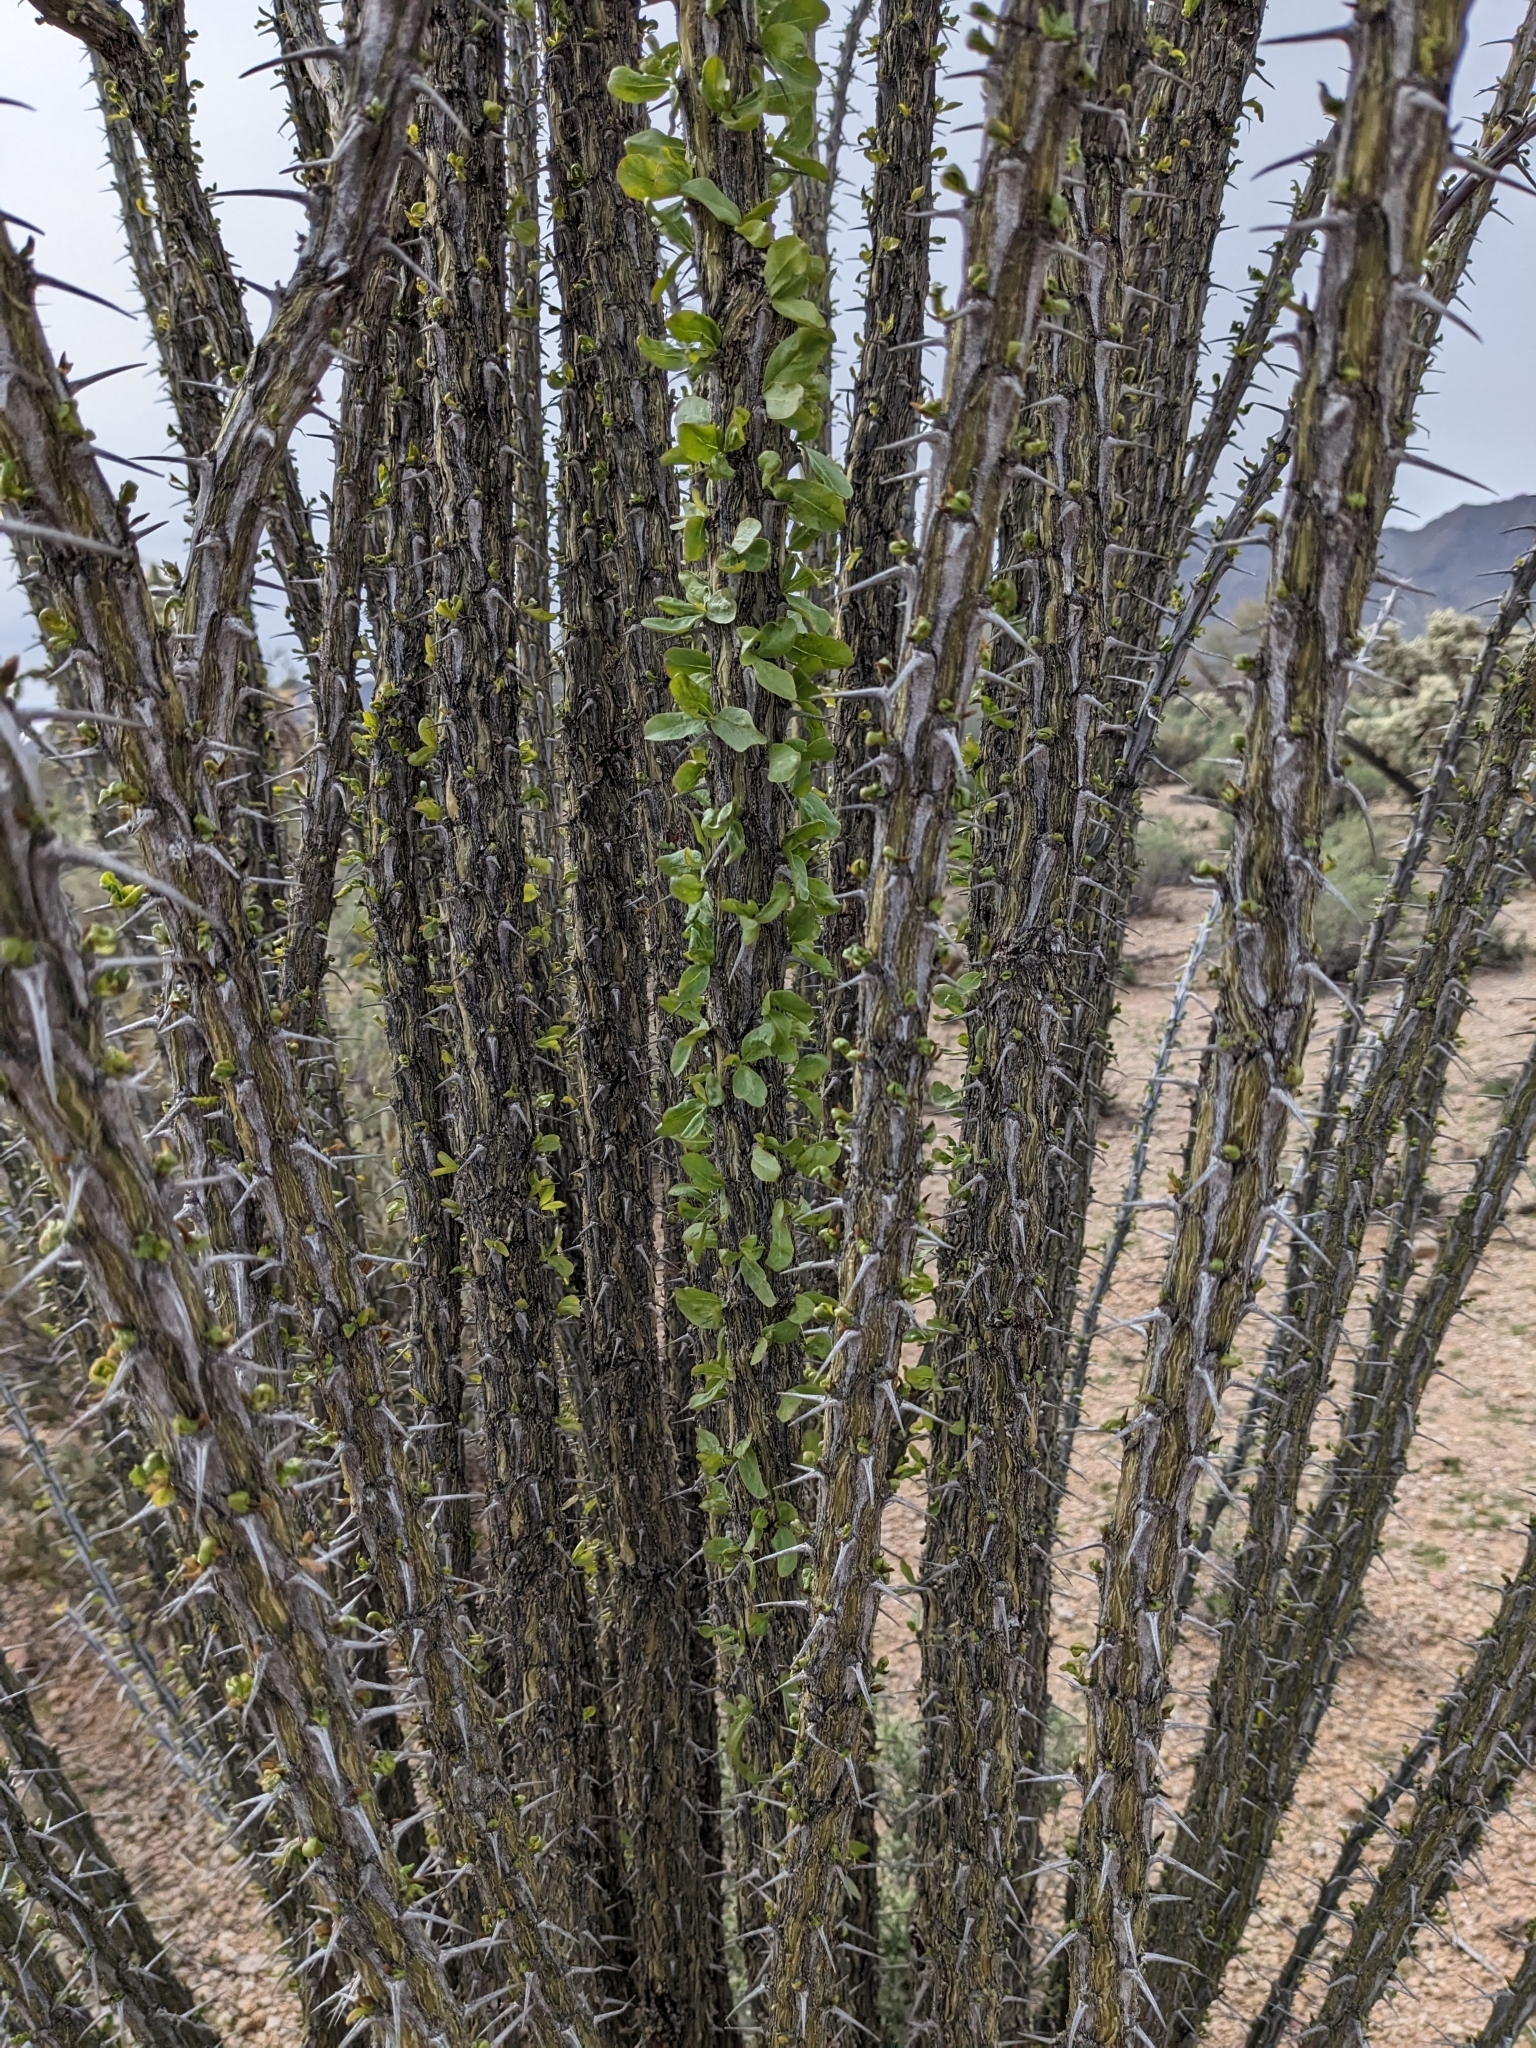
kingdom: Plantae
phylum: Tracheophyta
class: Magnoliopsida
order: Ericales
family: Fouquieriaceae
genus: Fouquieria
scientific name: Fouquieria splendens
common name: Vine-cactus
